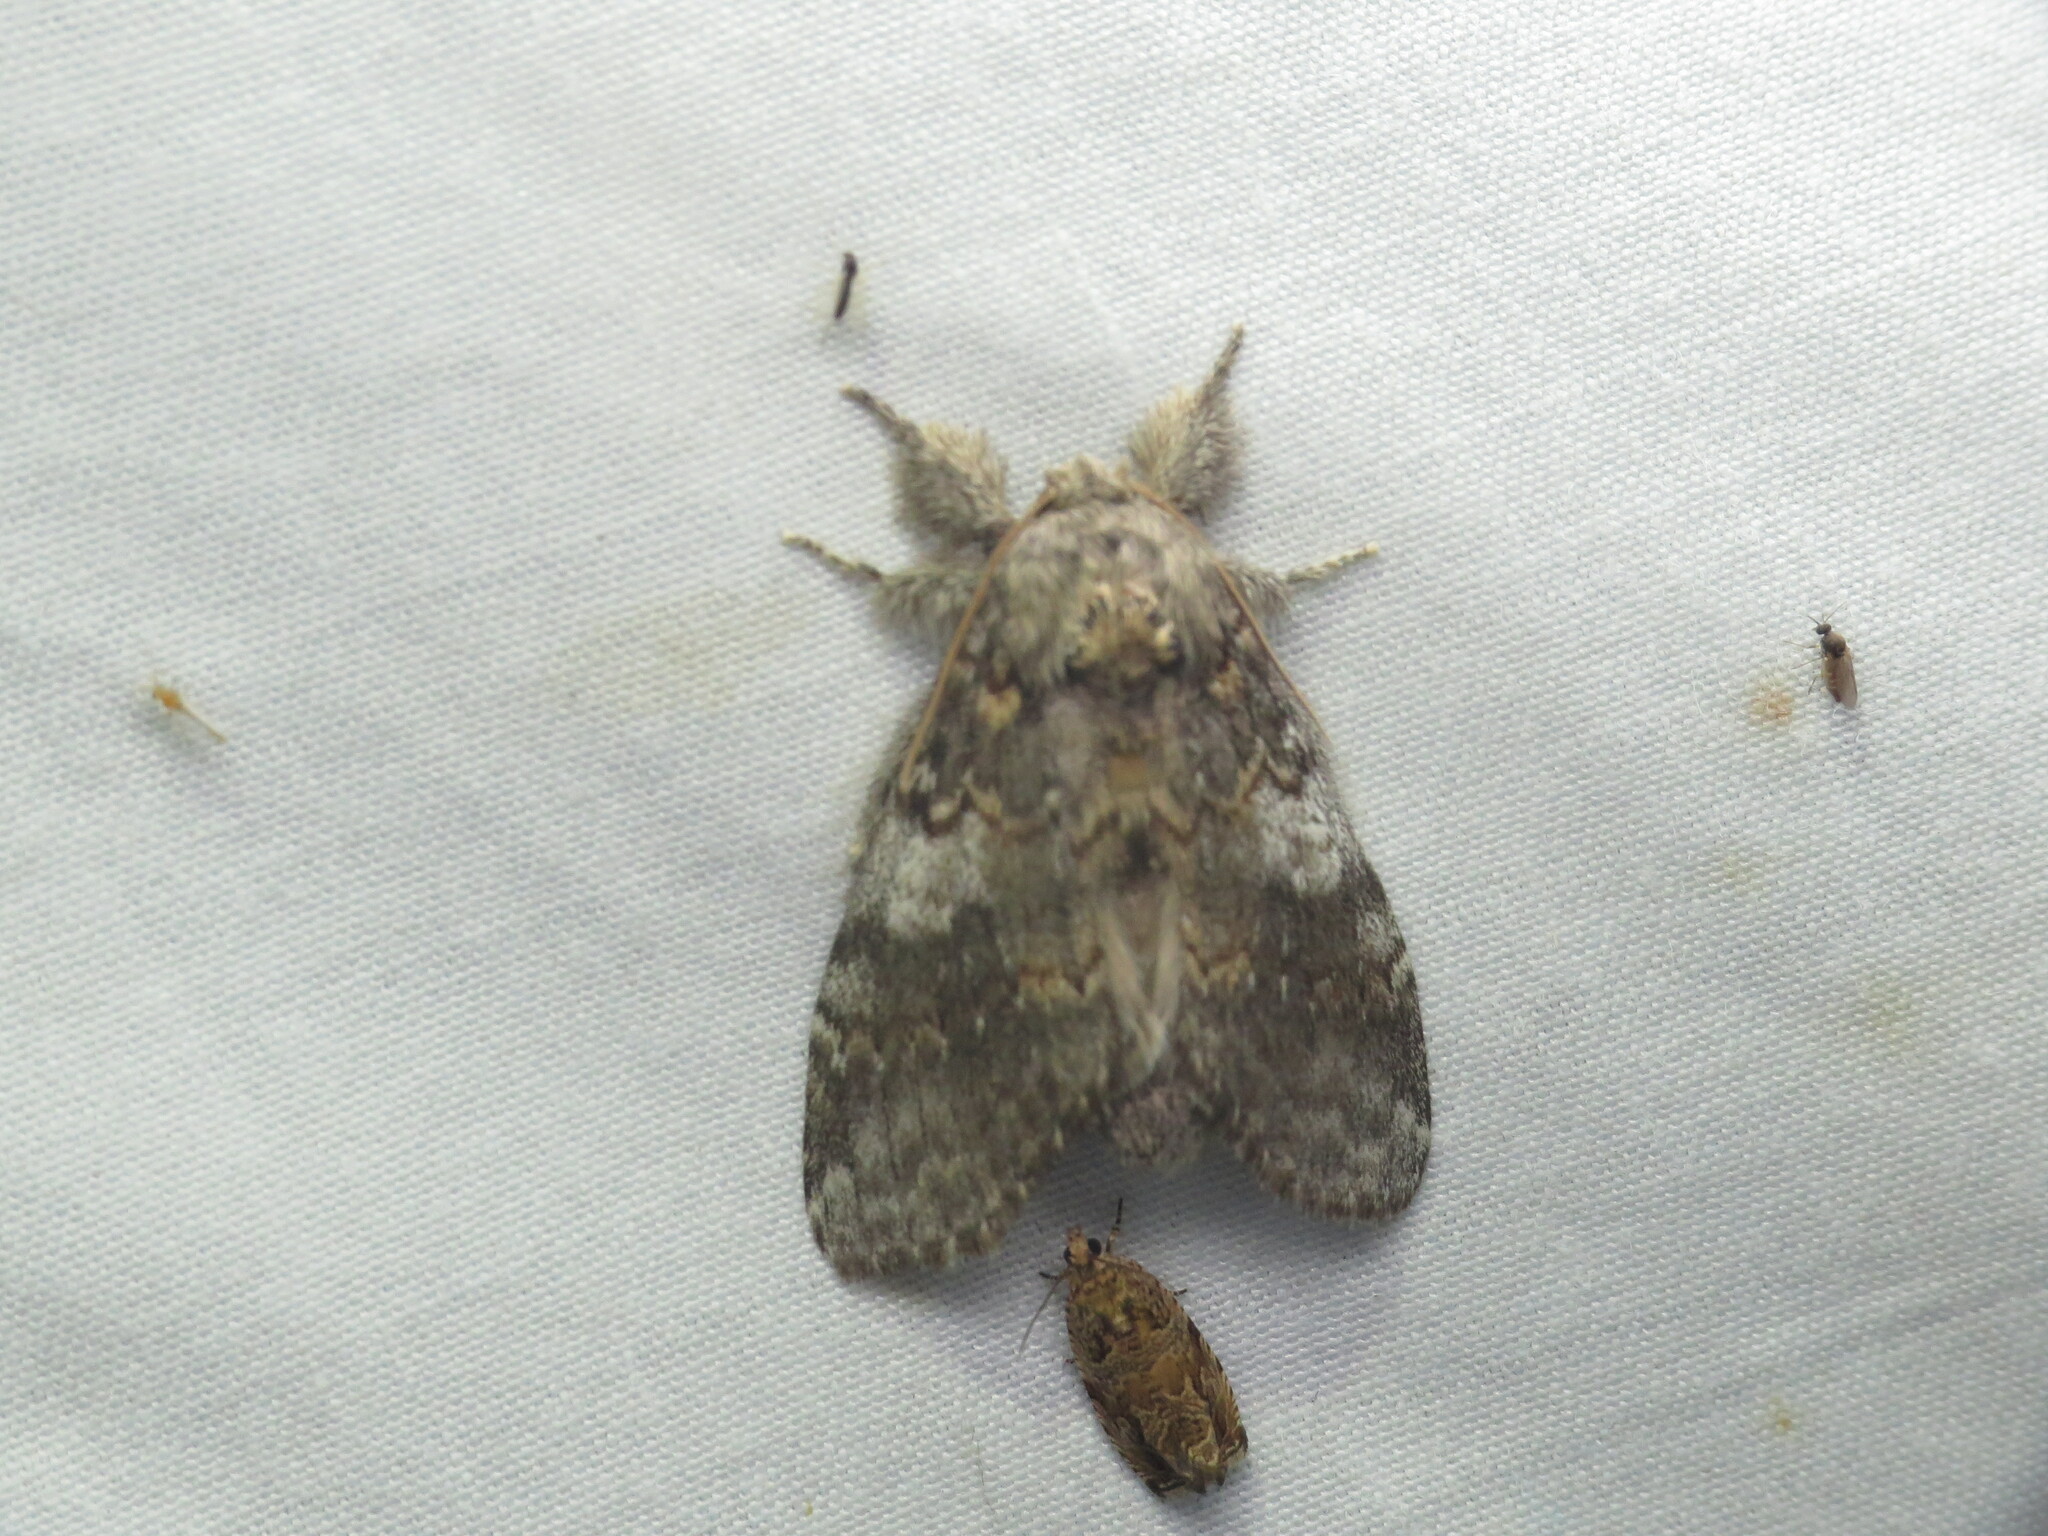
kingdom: Animalia
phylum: Arthropoda
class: Insecta
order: Lepidoptera
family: Notodontidae
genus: Peridea
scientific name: Peridea angulosa
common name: Angulose prominent
